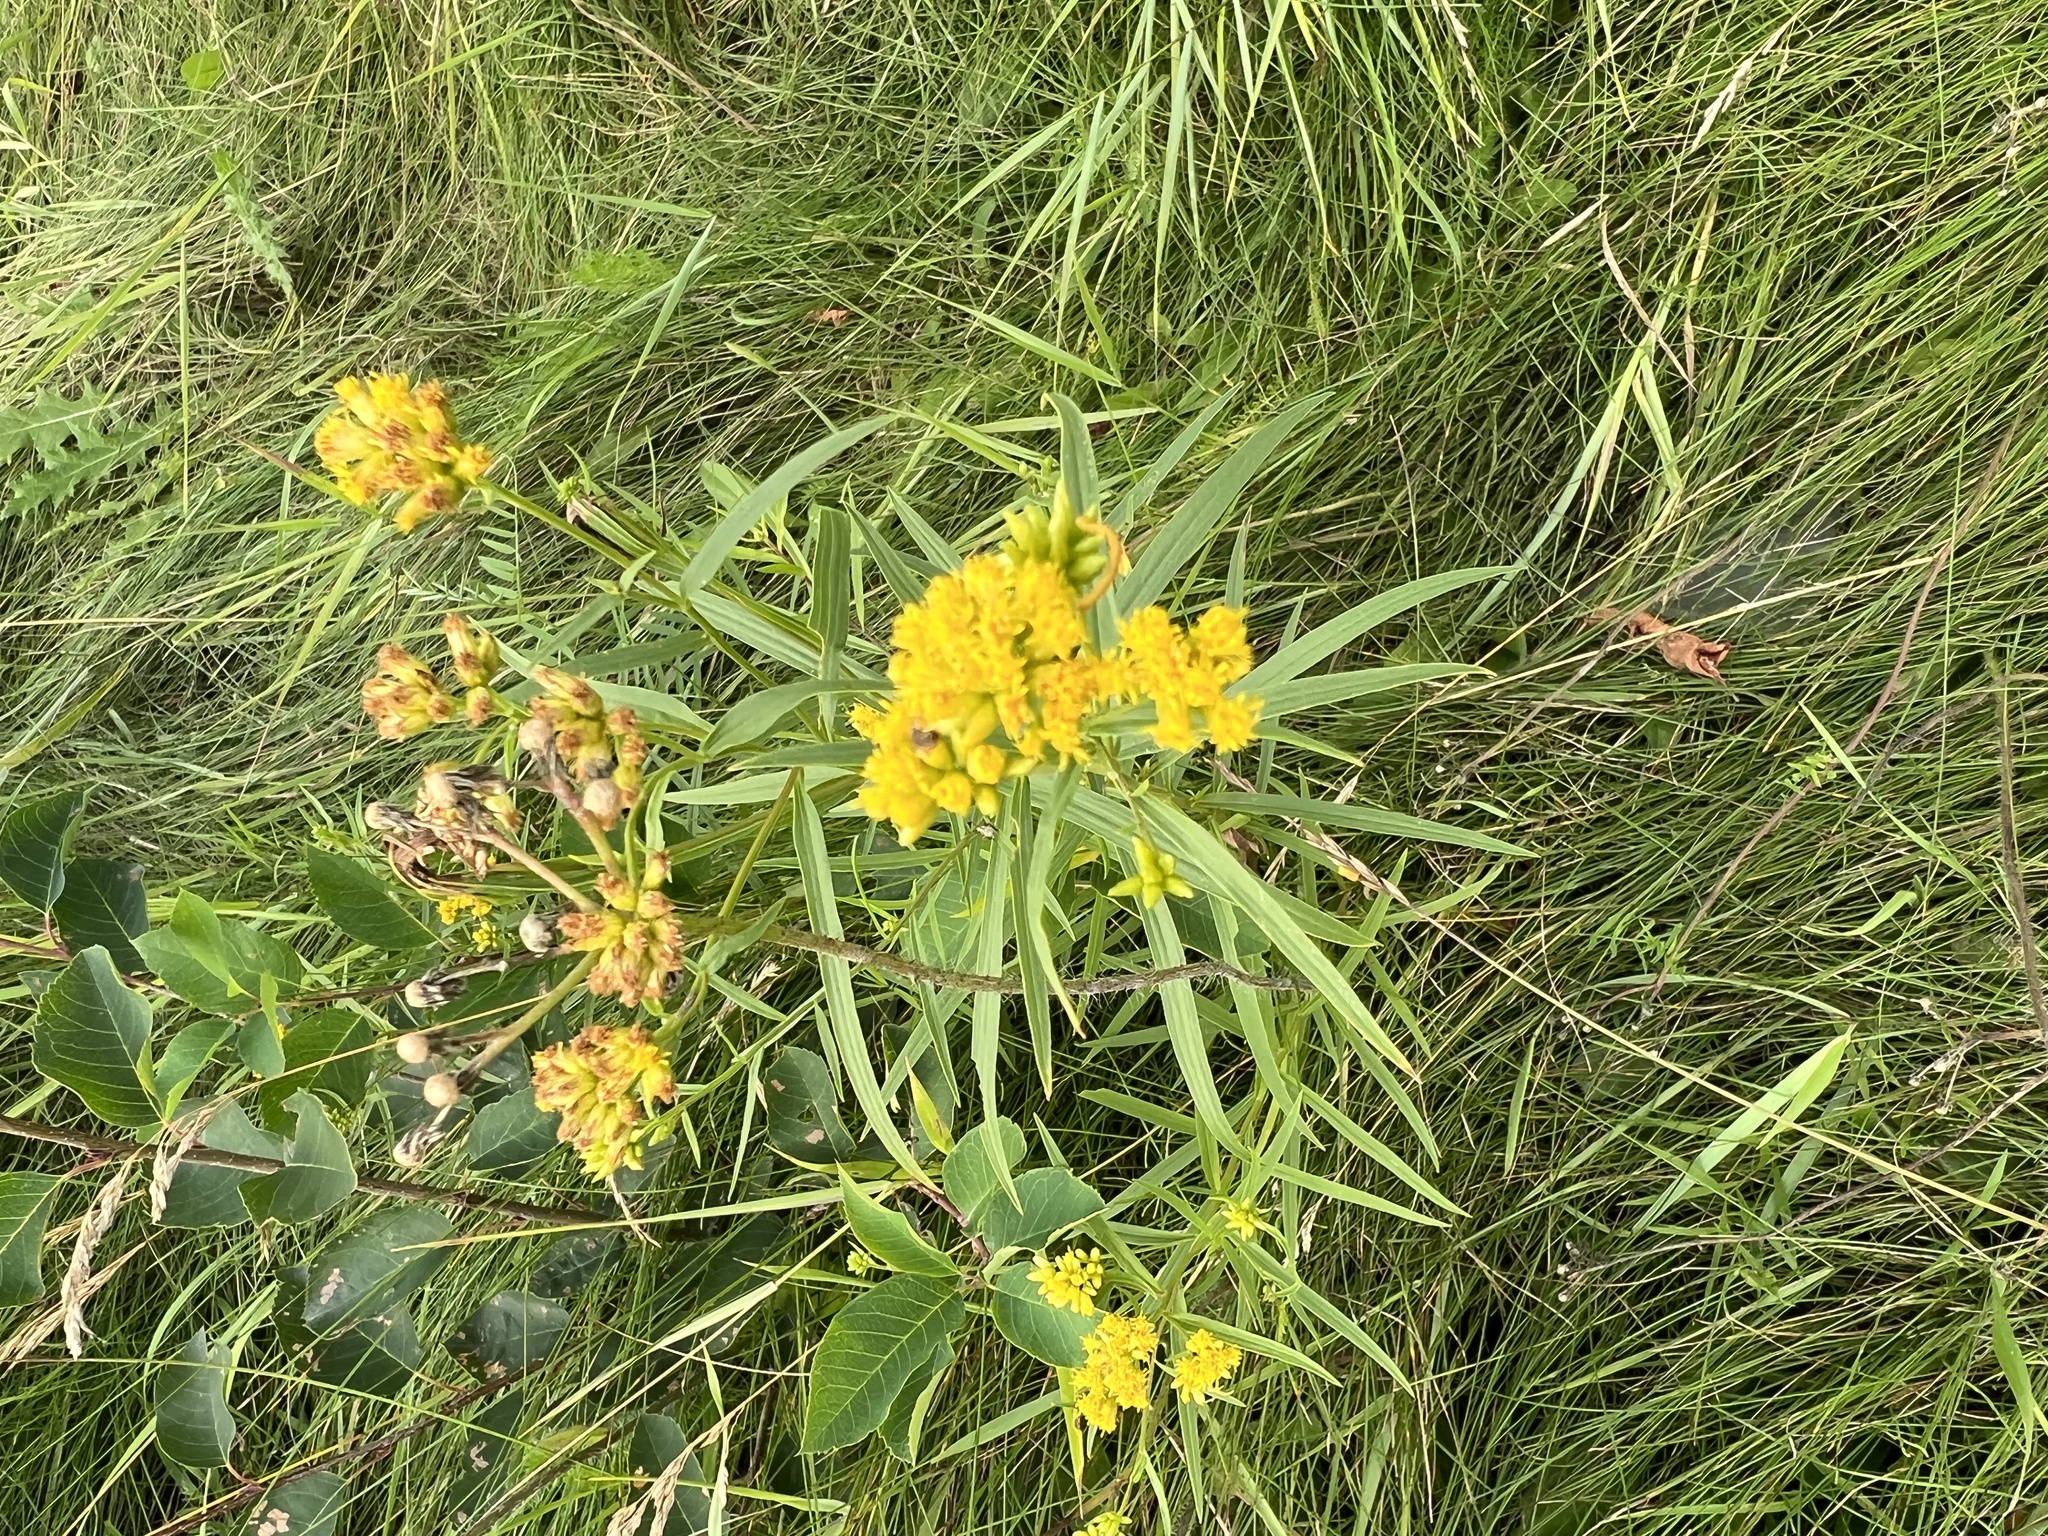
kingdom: Plantae
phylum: Tracheophyta
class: Magnoliopsida
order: Asterales
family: Asteraceae
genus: Euthamia
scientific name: Euthamia graminifolia
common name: Common goldentop
